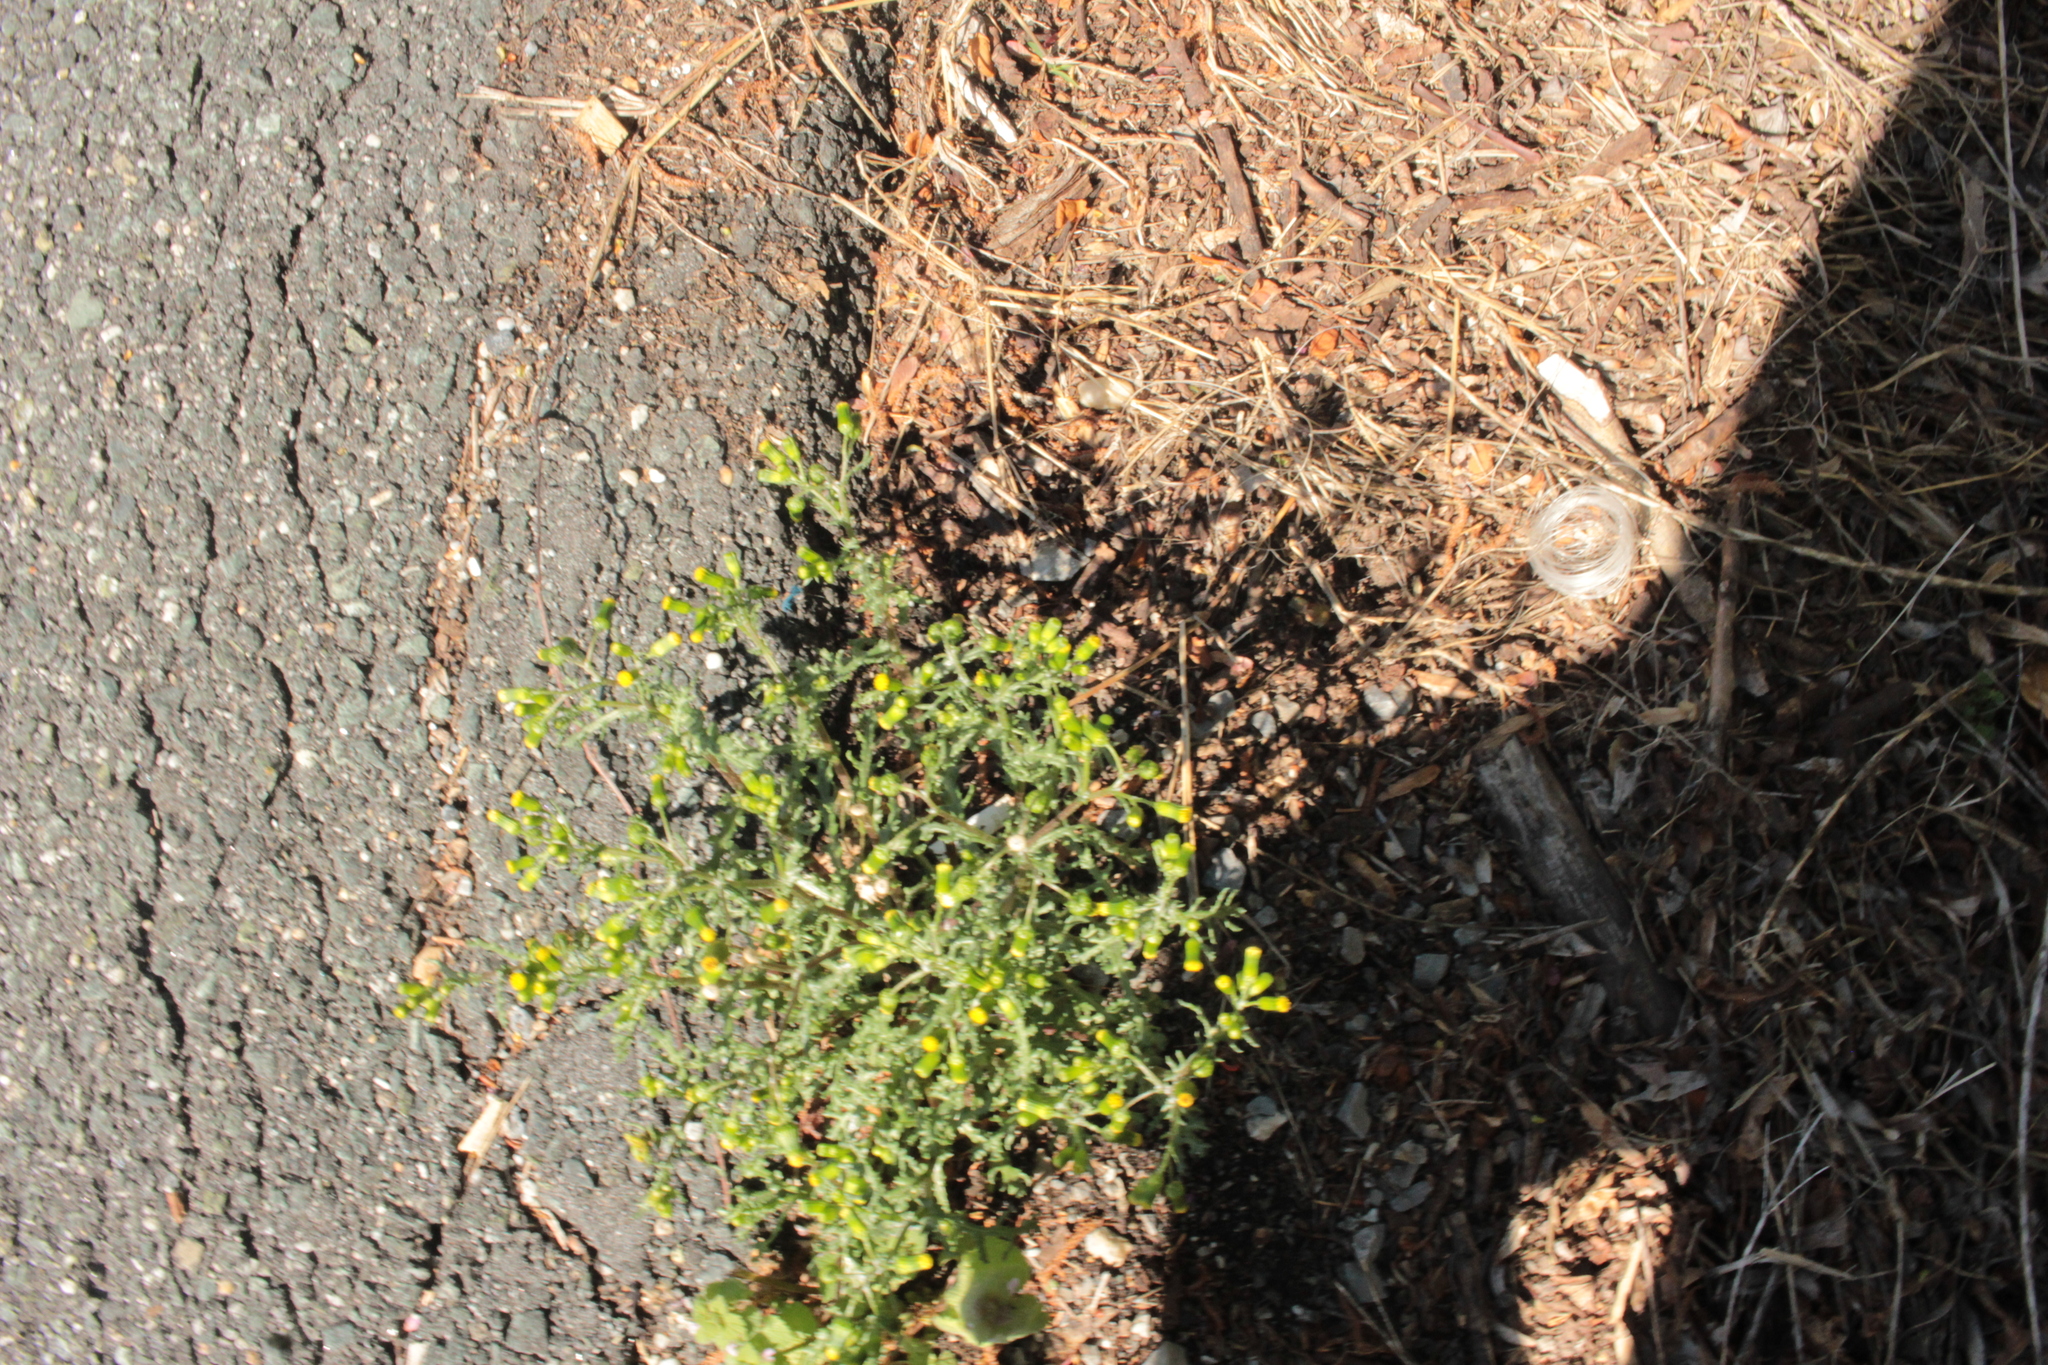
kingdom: Plantae
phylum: Tracheophyta
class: Magnoliopsida
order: Asterales
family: Asteraceae
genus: Senecio
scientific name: Senecio vulgaris
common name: Old-man-in-the-spring
